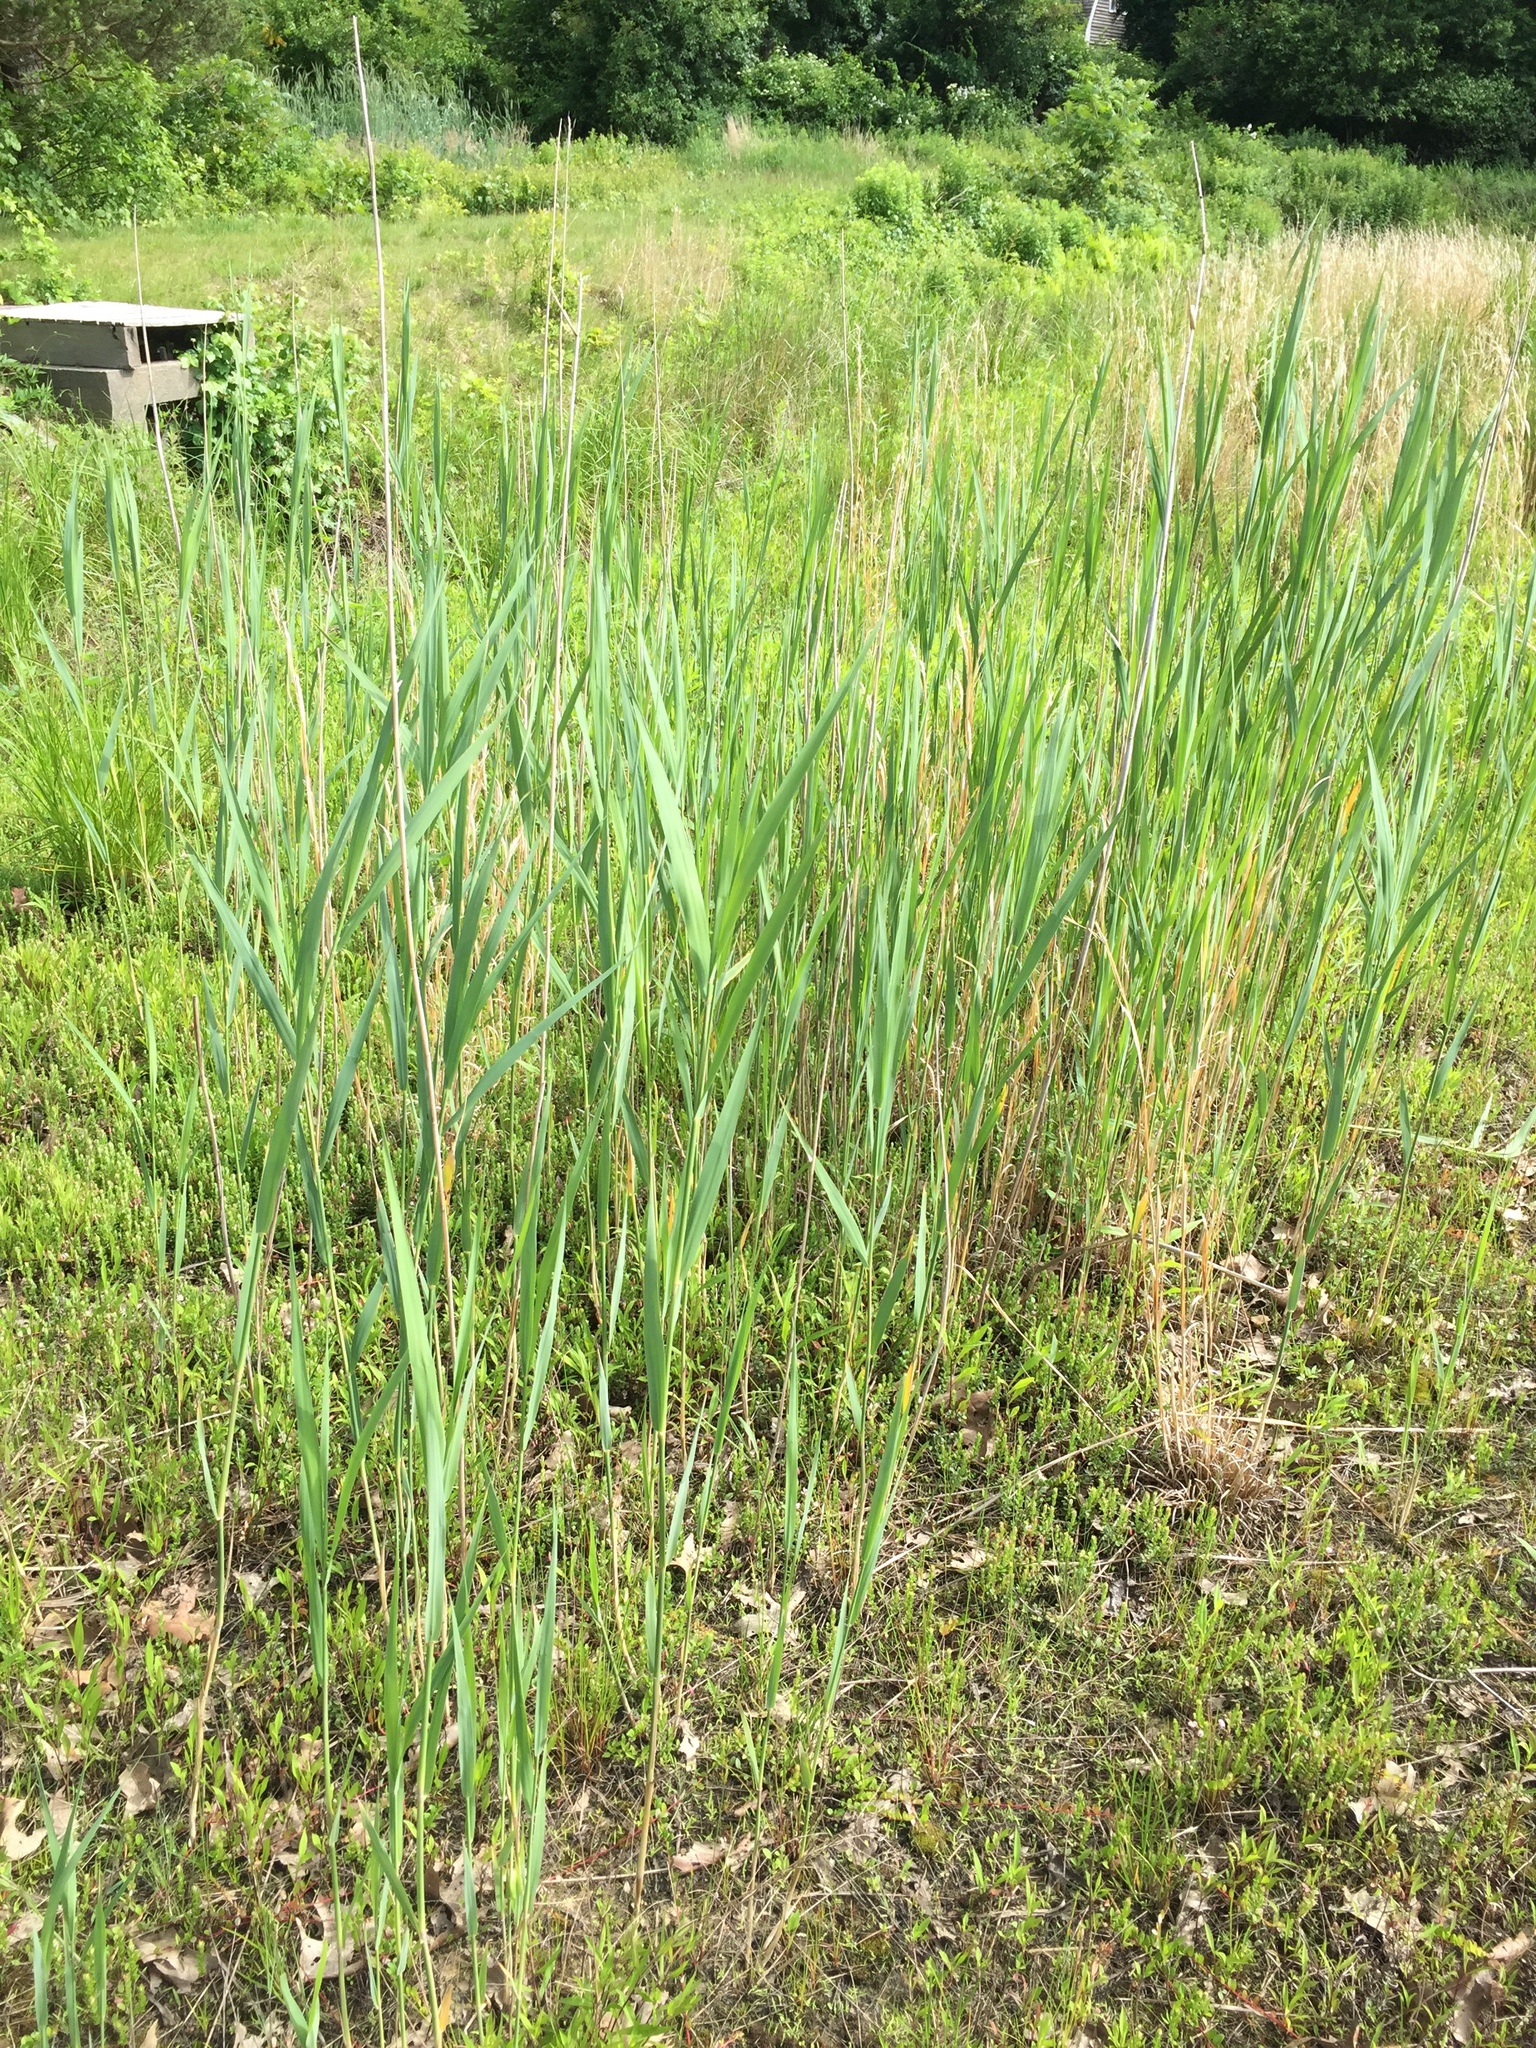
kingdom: Plantae
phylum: Tracheophyta
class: Liliopsida
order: Poales
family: Poaceae
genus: Phragmites
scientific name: Phragmites australis
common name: Common reed
